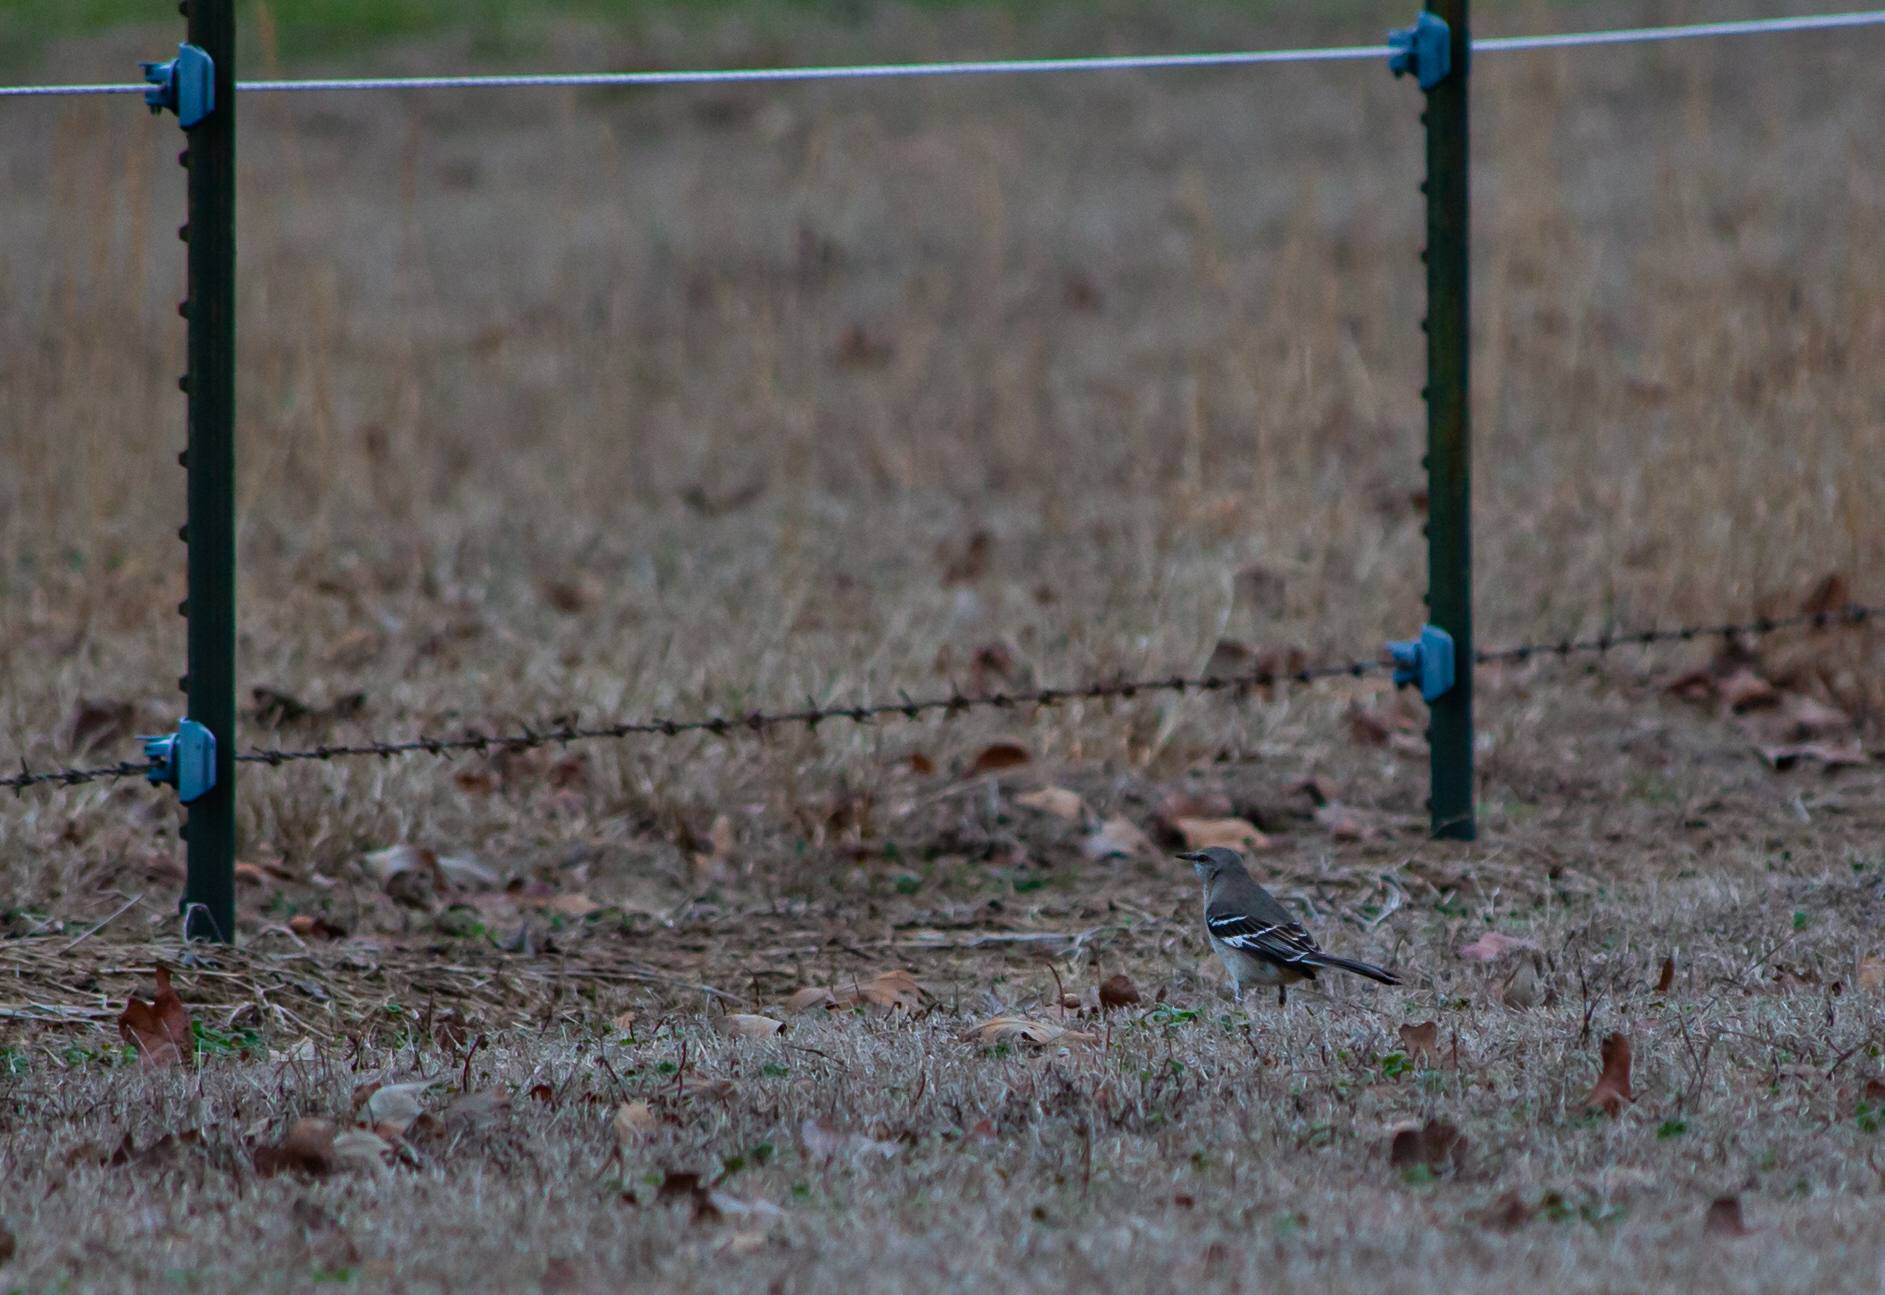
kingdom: Animalia
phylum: Chordata
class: Aves
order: Passeriformes
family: Mimidae
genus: Mimus
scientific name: Mimus polyglottos
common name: Northern mockingbird
